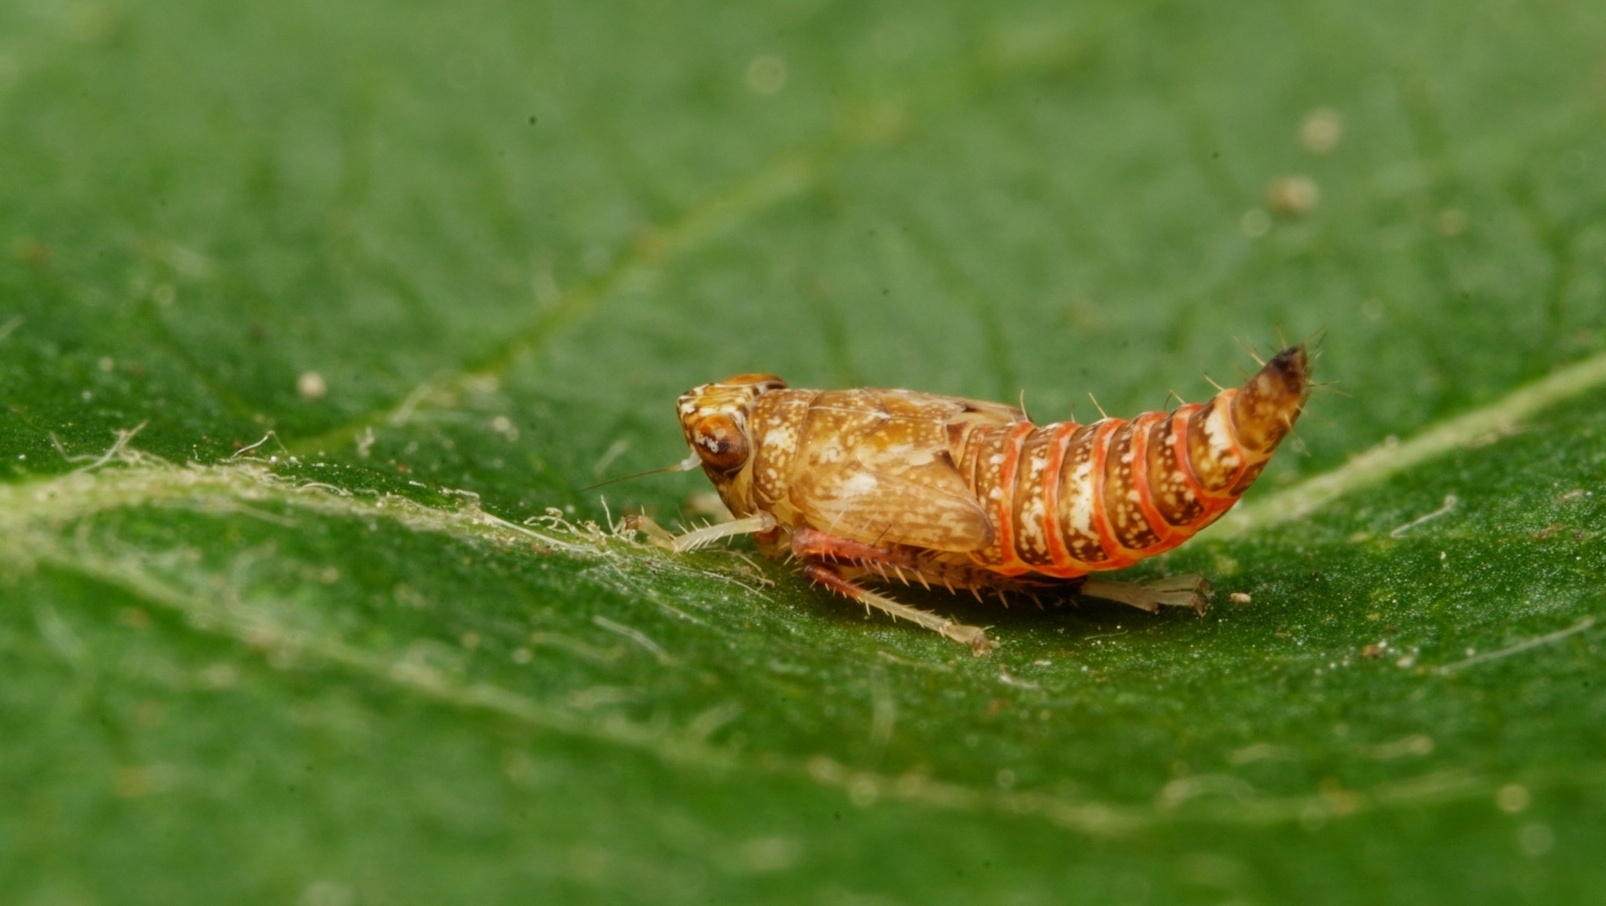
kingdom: Animalia
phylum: Arthropoda
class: Insecta
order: Hemiptera
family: Cicadellidae
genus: Orientus
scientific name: Orientus ishidae
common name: Japanese leafhopper
